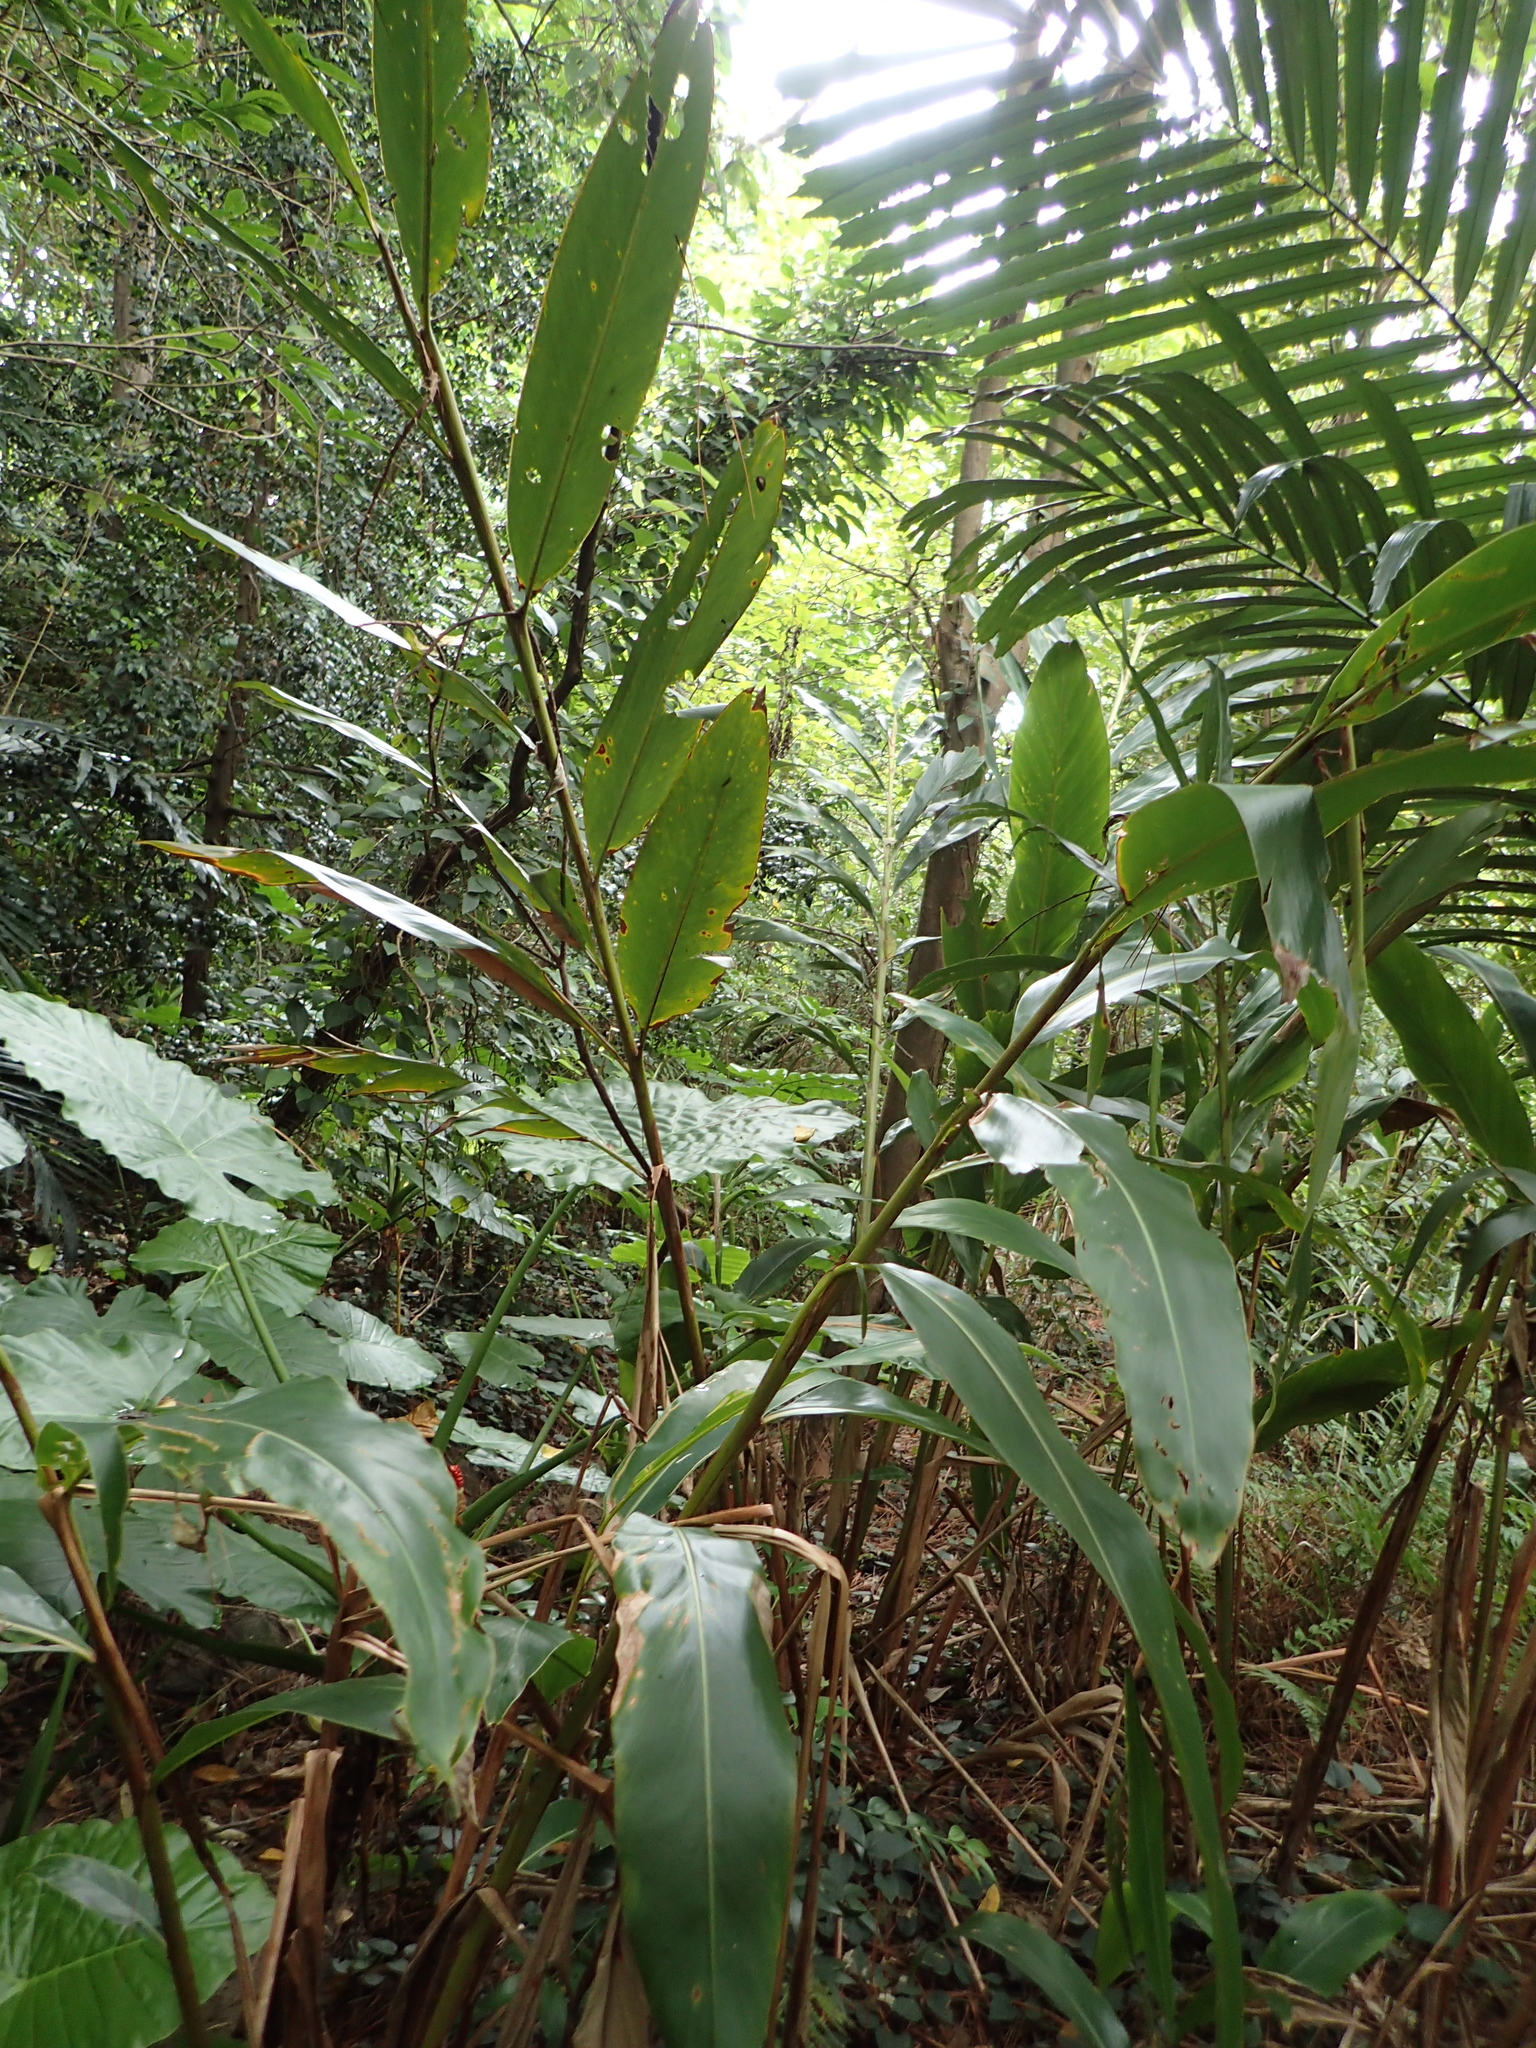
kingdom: Plantae
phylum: Tracheophyta
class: Liliopsida
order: Zingiberales
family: Zingiberaceae
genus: Alpinia
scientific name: Alpinia zerumbet
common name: Shellplant
